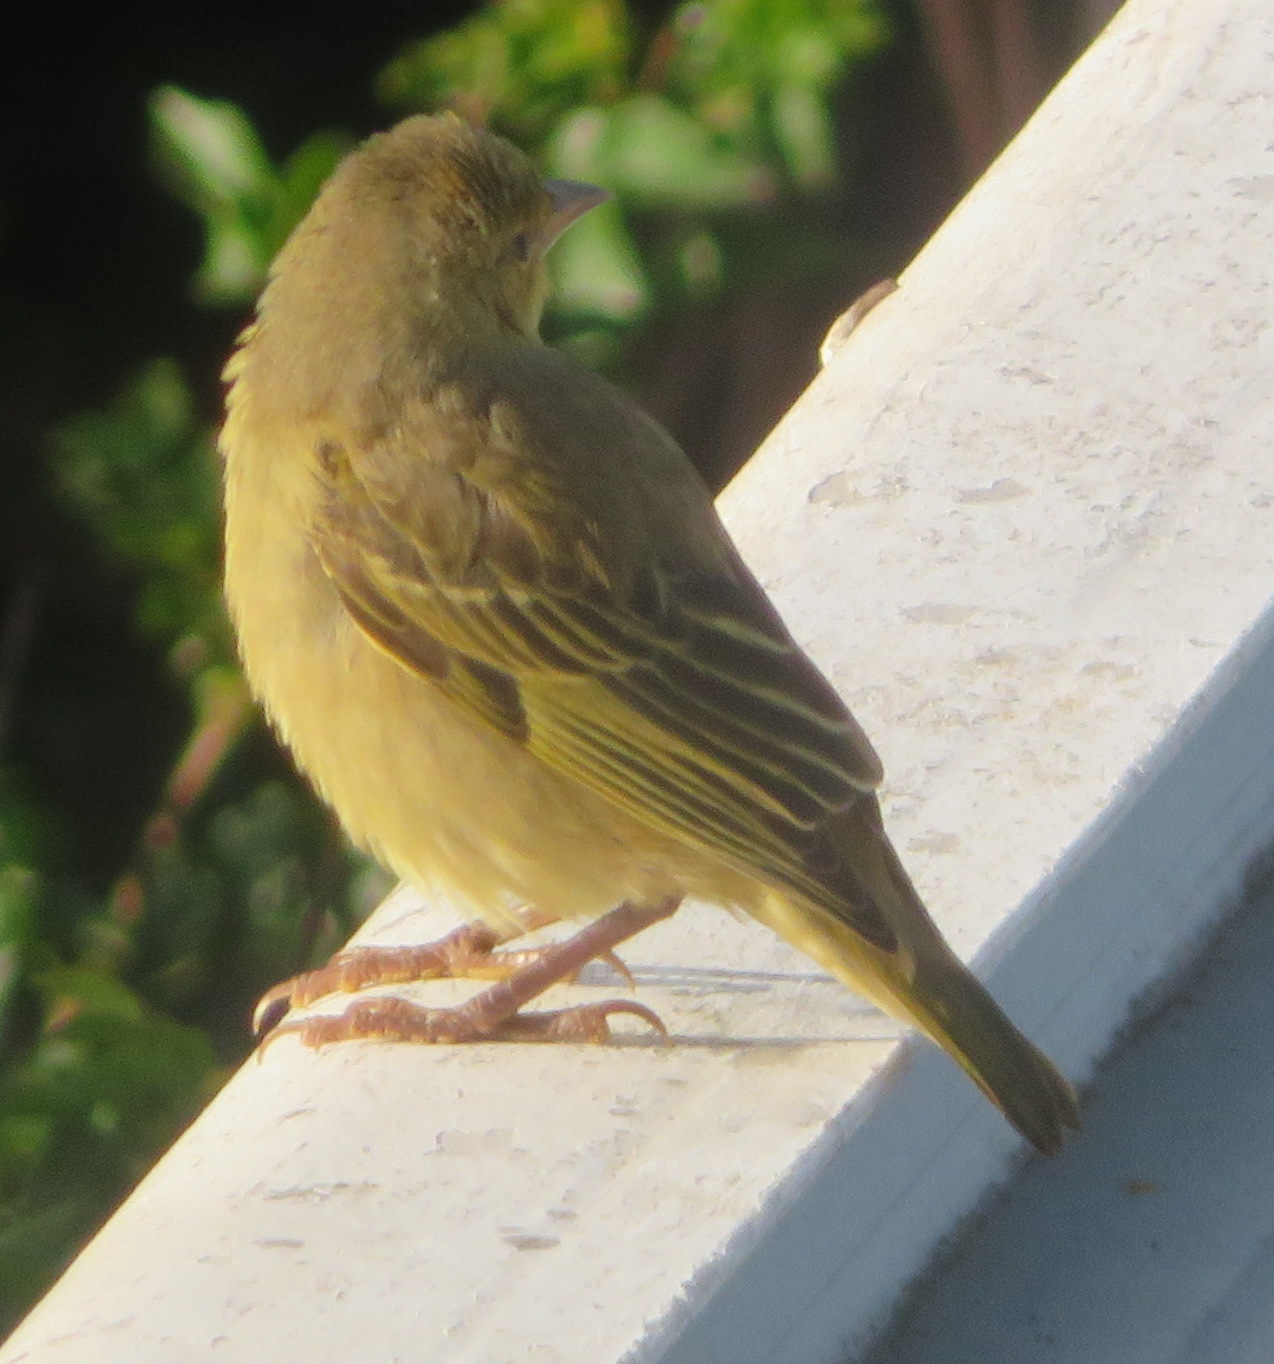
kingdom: Animalia
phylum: Chordata
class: Aves
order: Passeriformes
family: Ploceidae
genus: Ploceus
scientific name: Ploceus capensis
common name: Cape weaver
